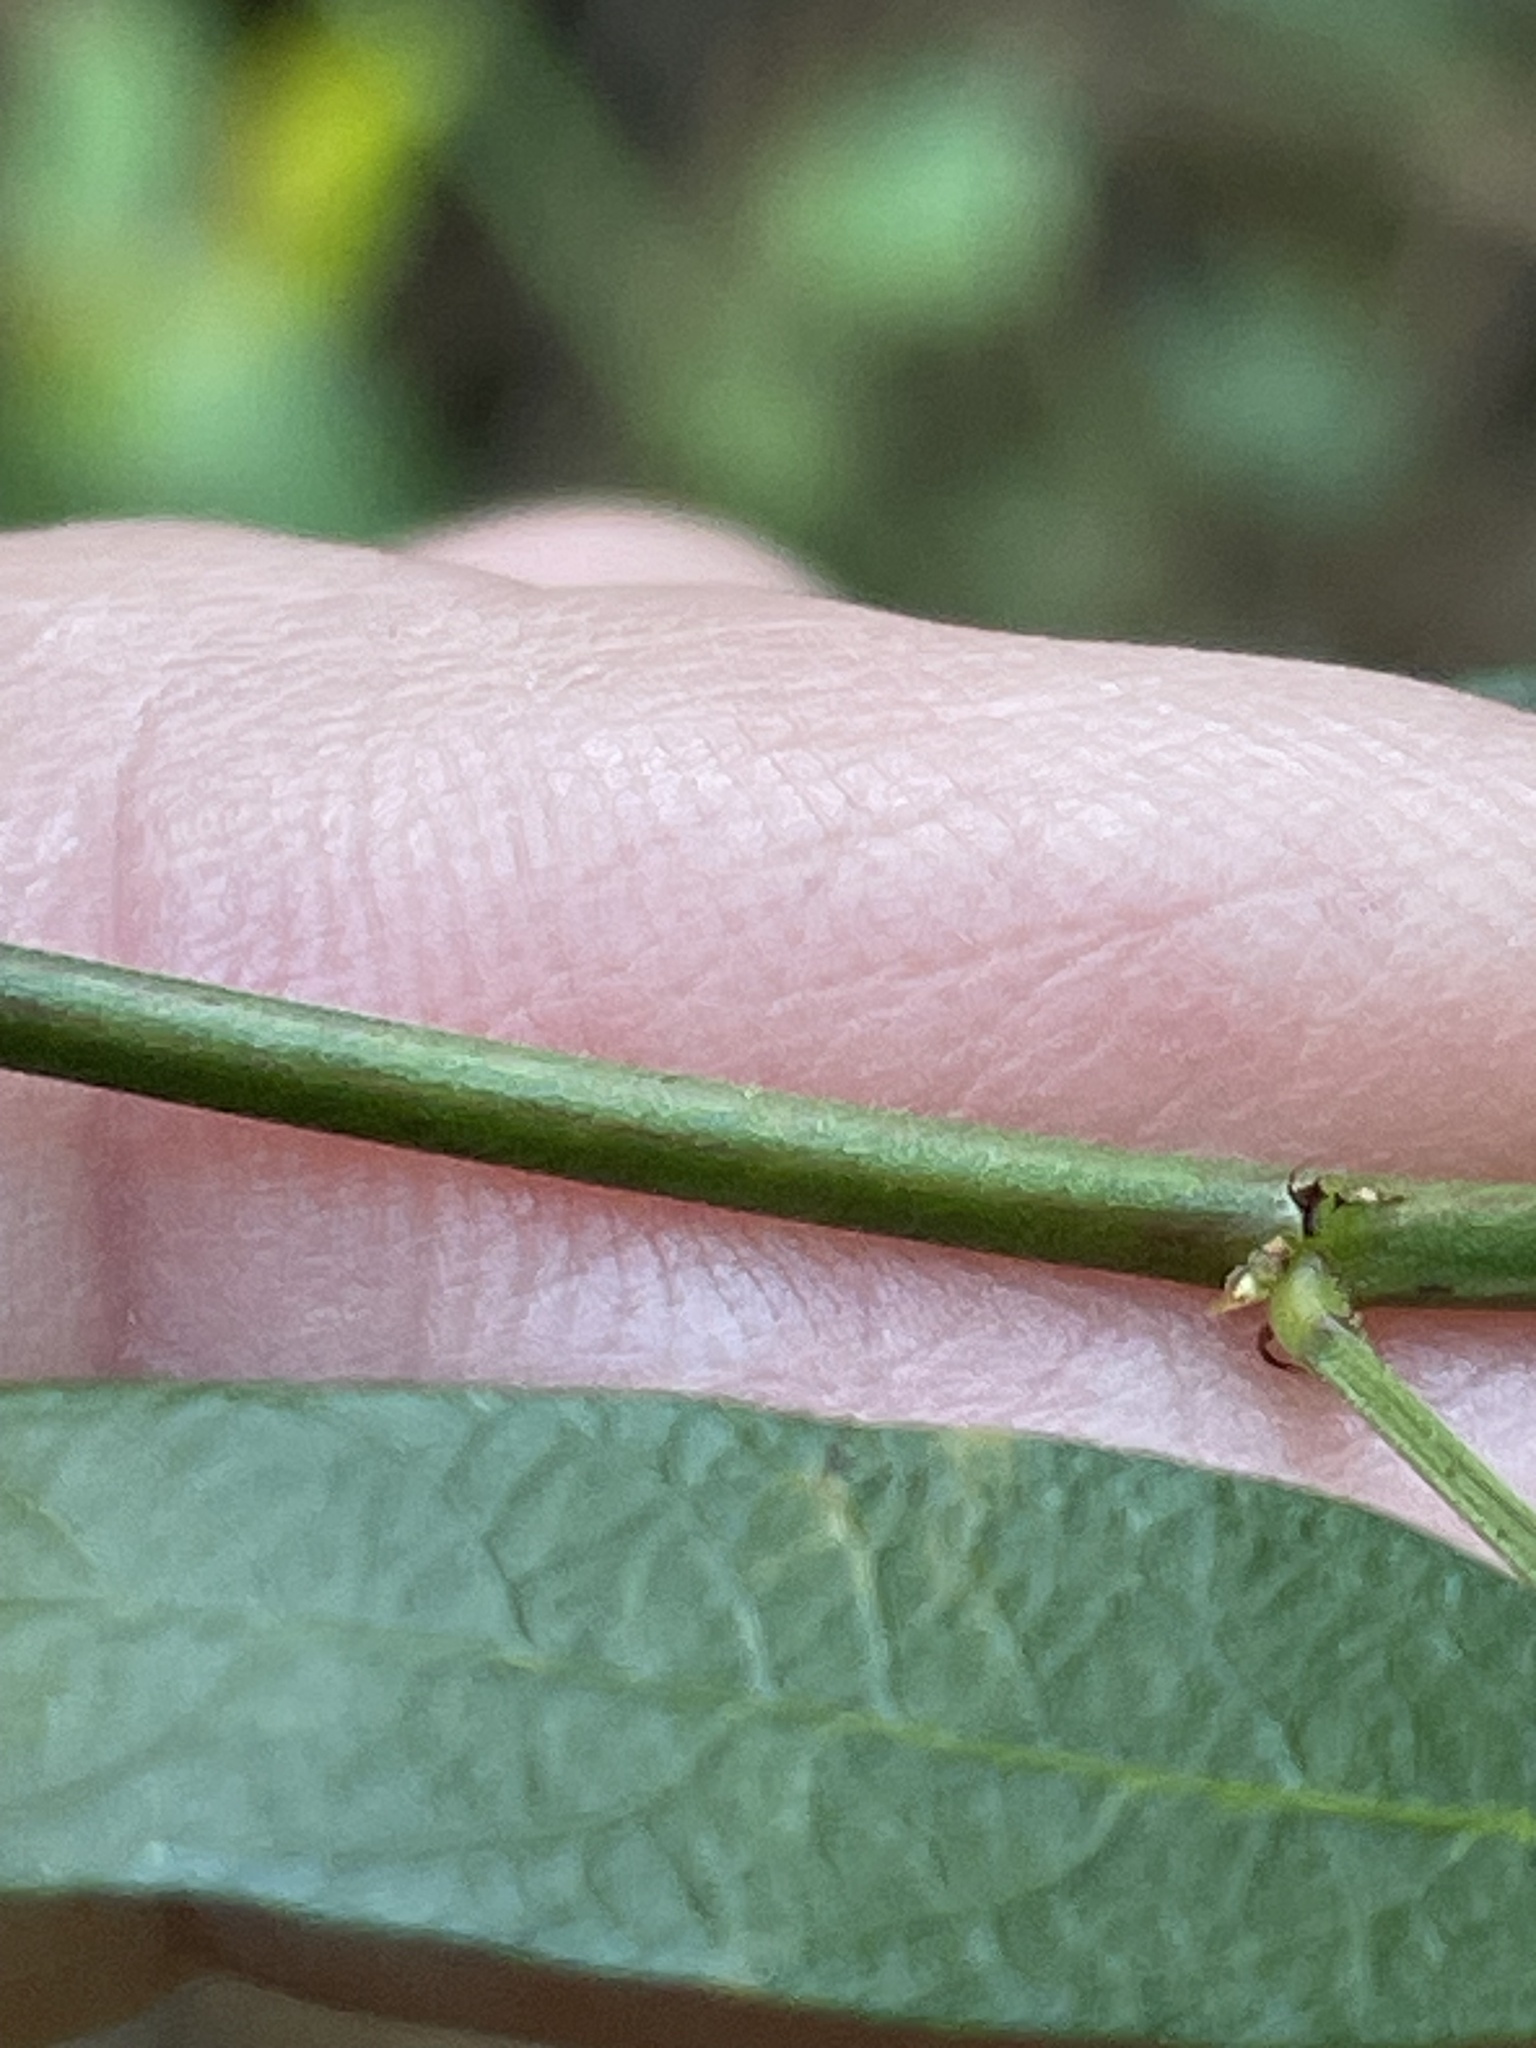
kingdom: Plantae
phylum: Tracheophyta
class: Magnoliopsida
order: Fabales
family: Fabaceae
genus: Desmodium
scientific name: Desmodium paniculatum
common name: Panicled tick-clover
